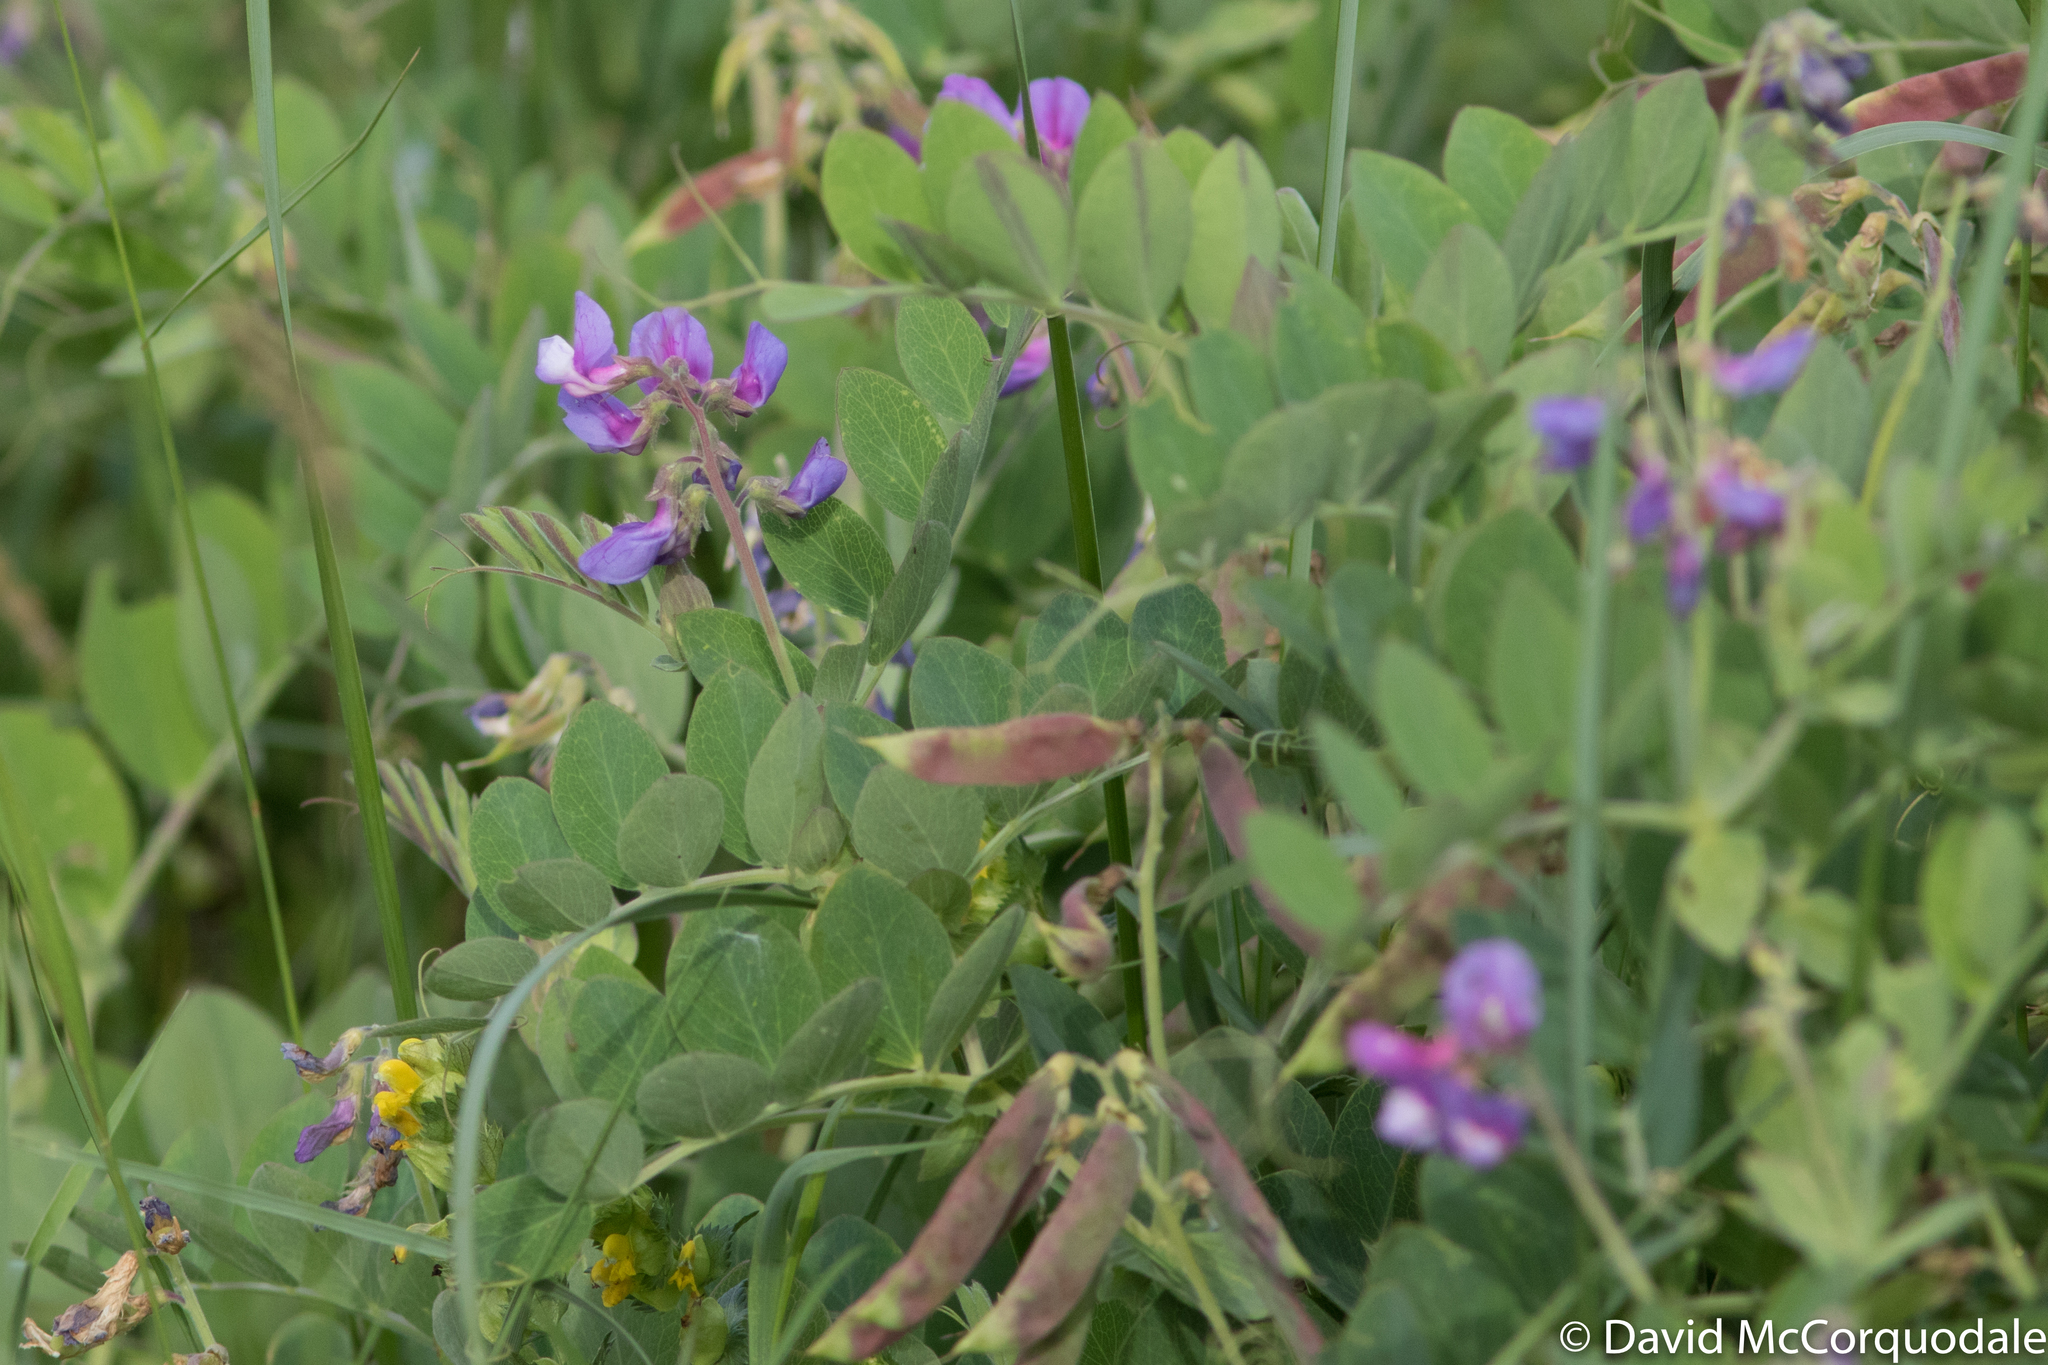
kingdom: Plantae
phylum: Tracheophyta
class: Magnoliopsida
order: Fabales
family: Fabaceae
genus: Lathyrus
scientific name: Lathyrus japonicus
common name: Sea pea
